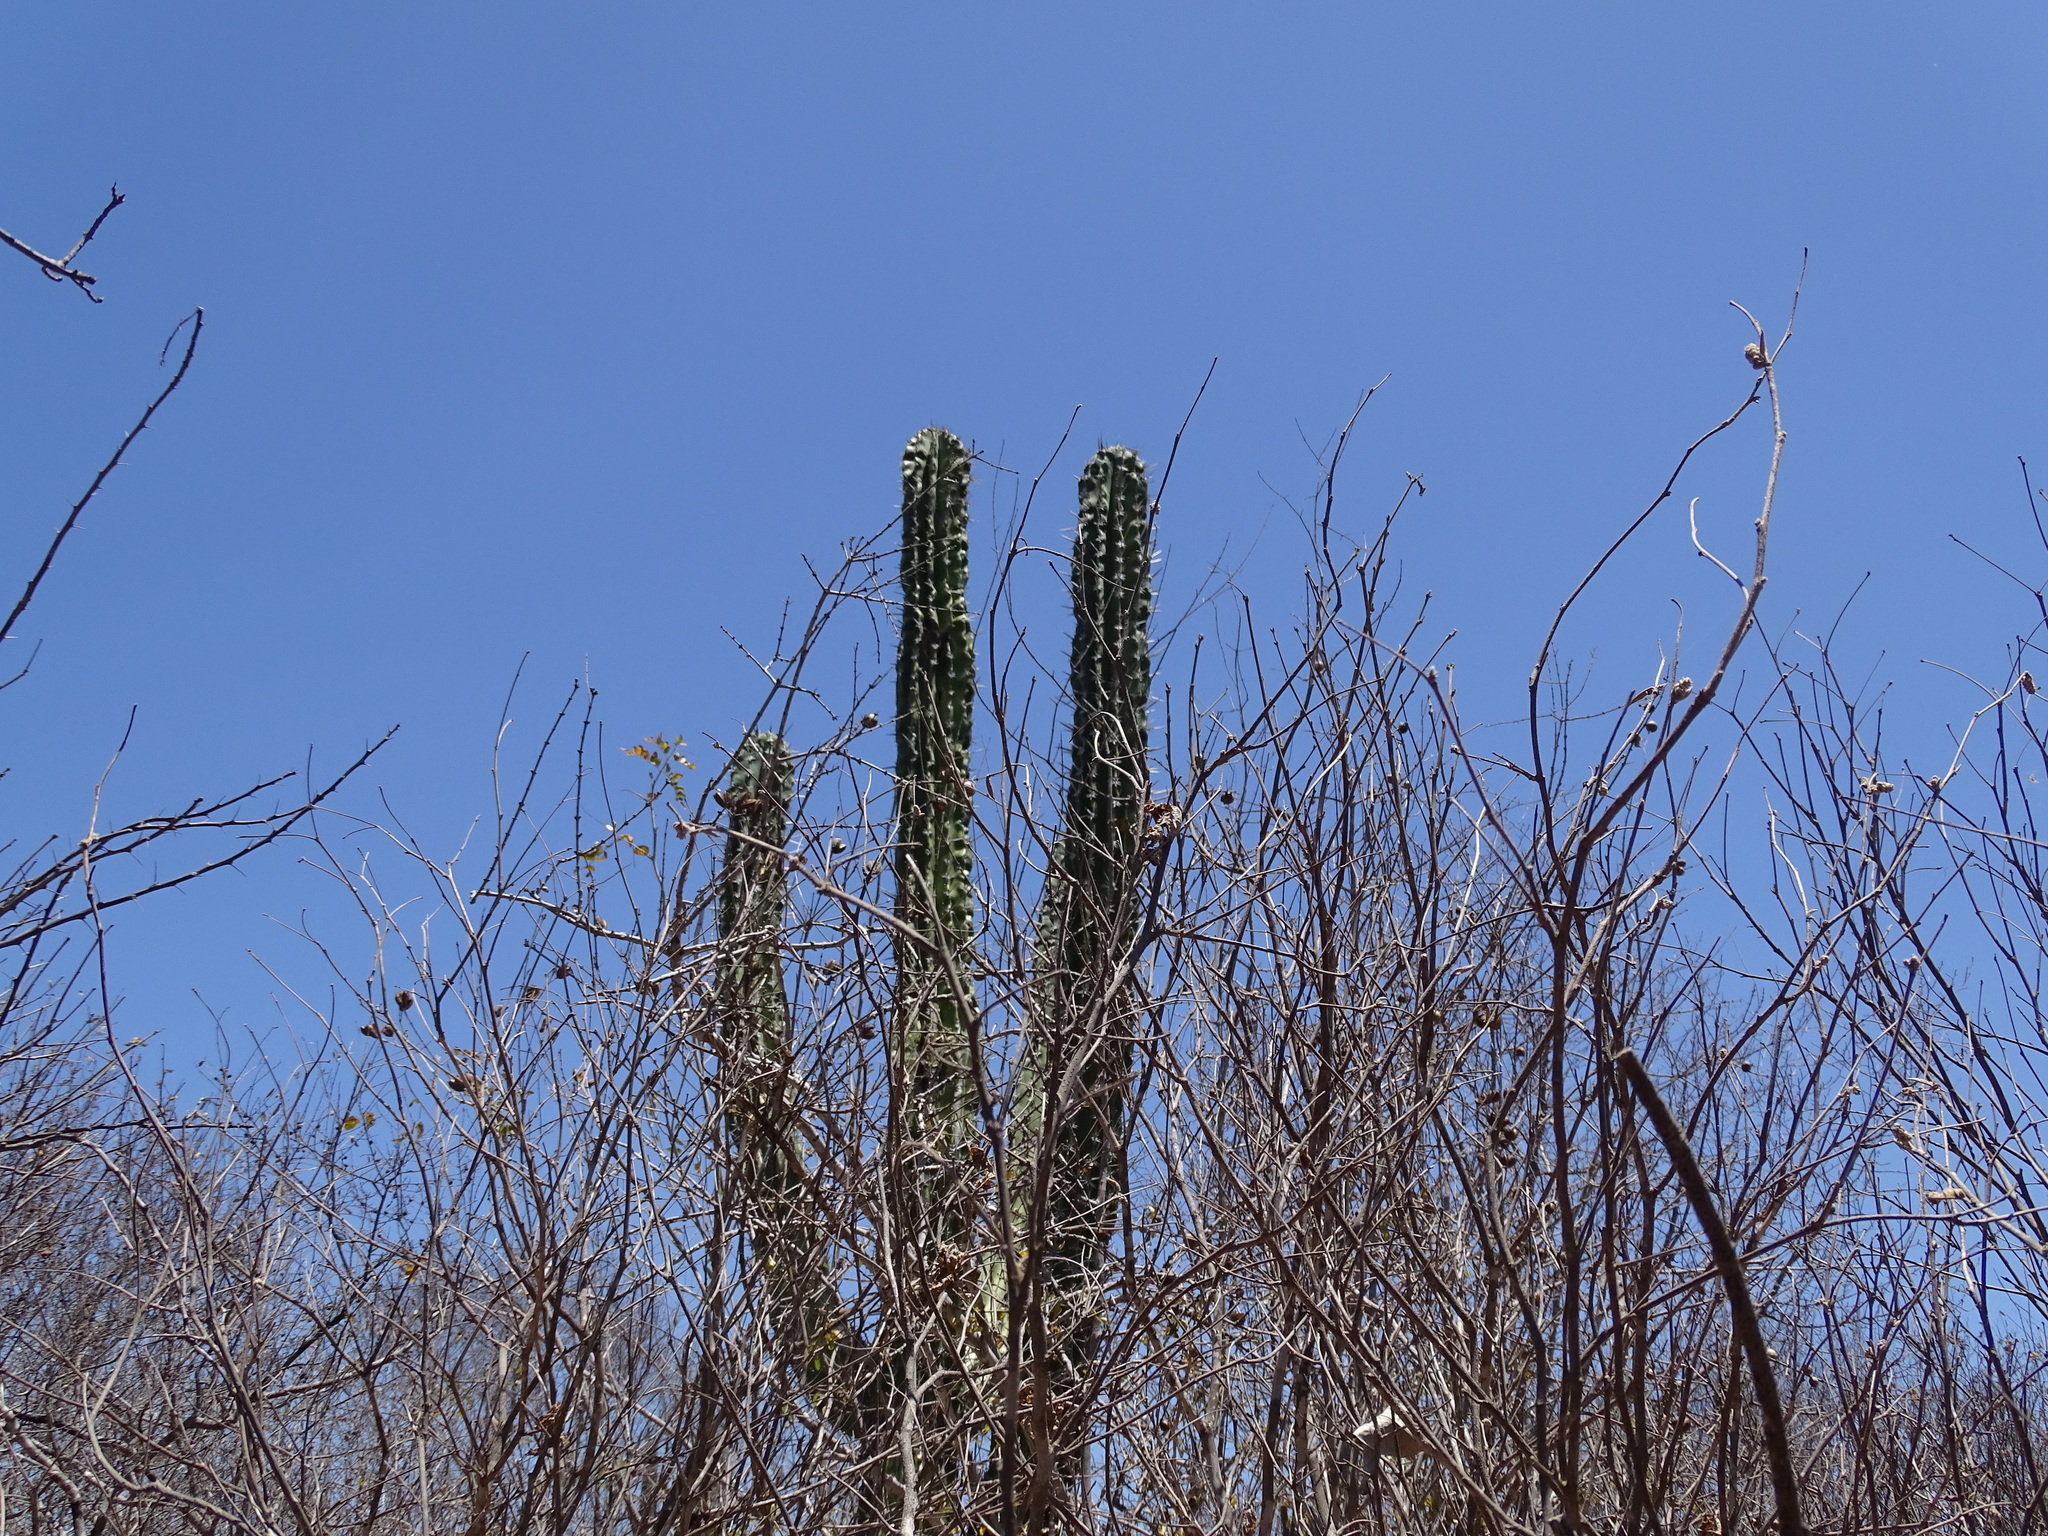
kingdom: Plantae
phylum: Tracheophyta
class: Magnoliopsida
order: Caryophyllales
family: Cactaceae
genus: Pachycereus
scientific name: Pachycereus pecten-aboriginum
